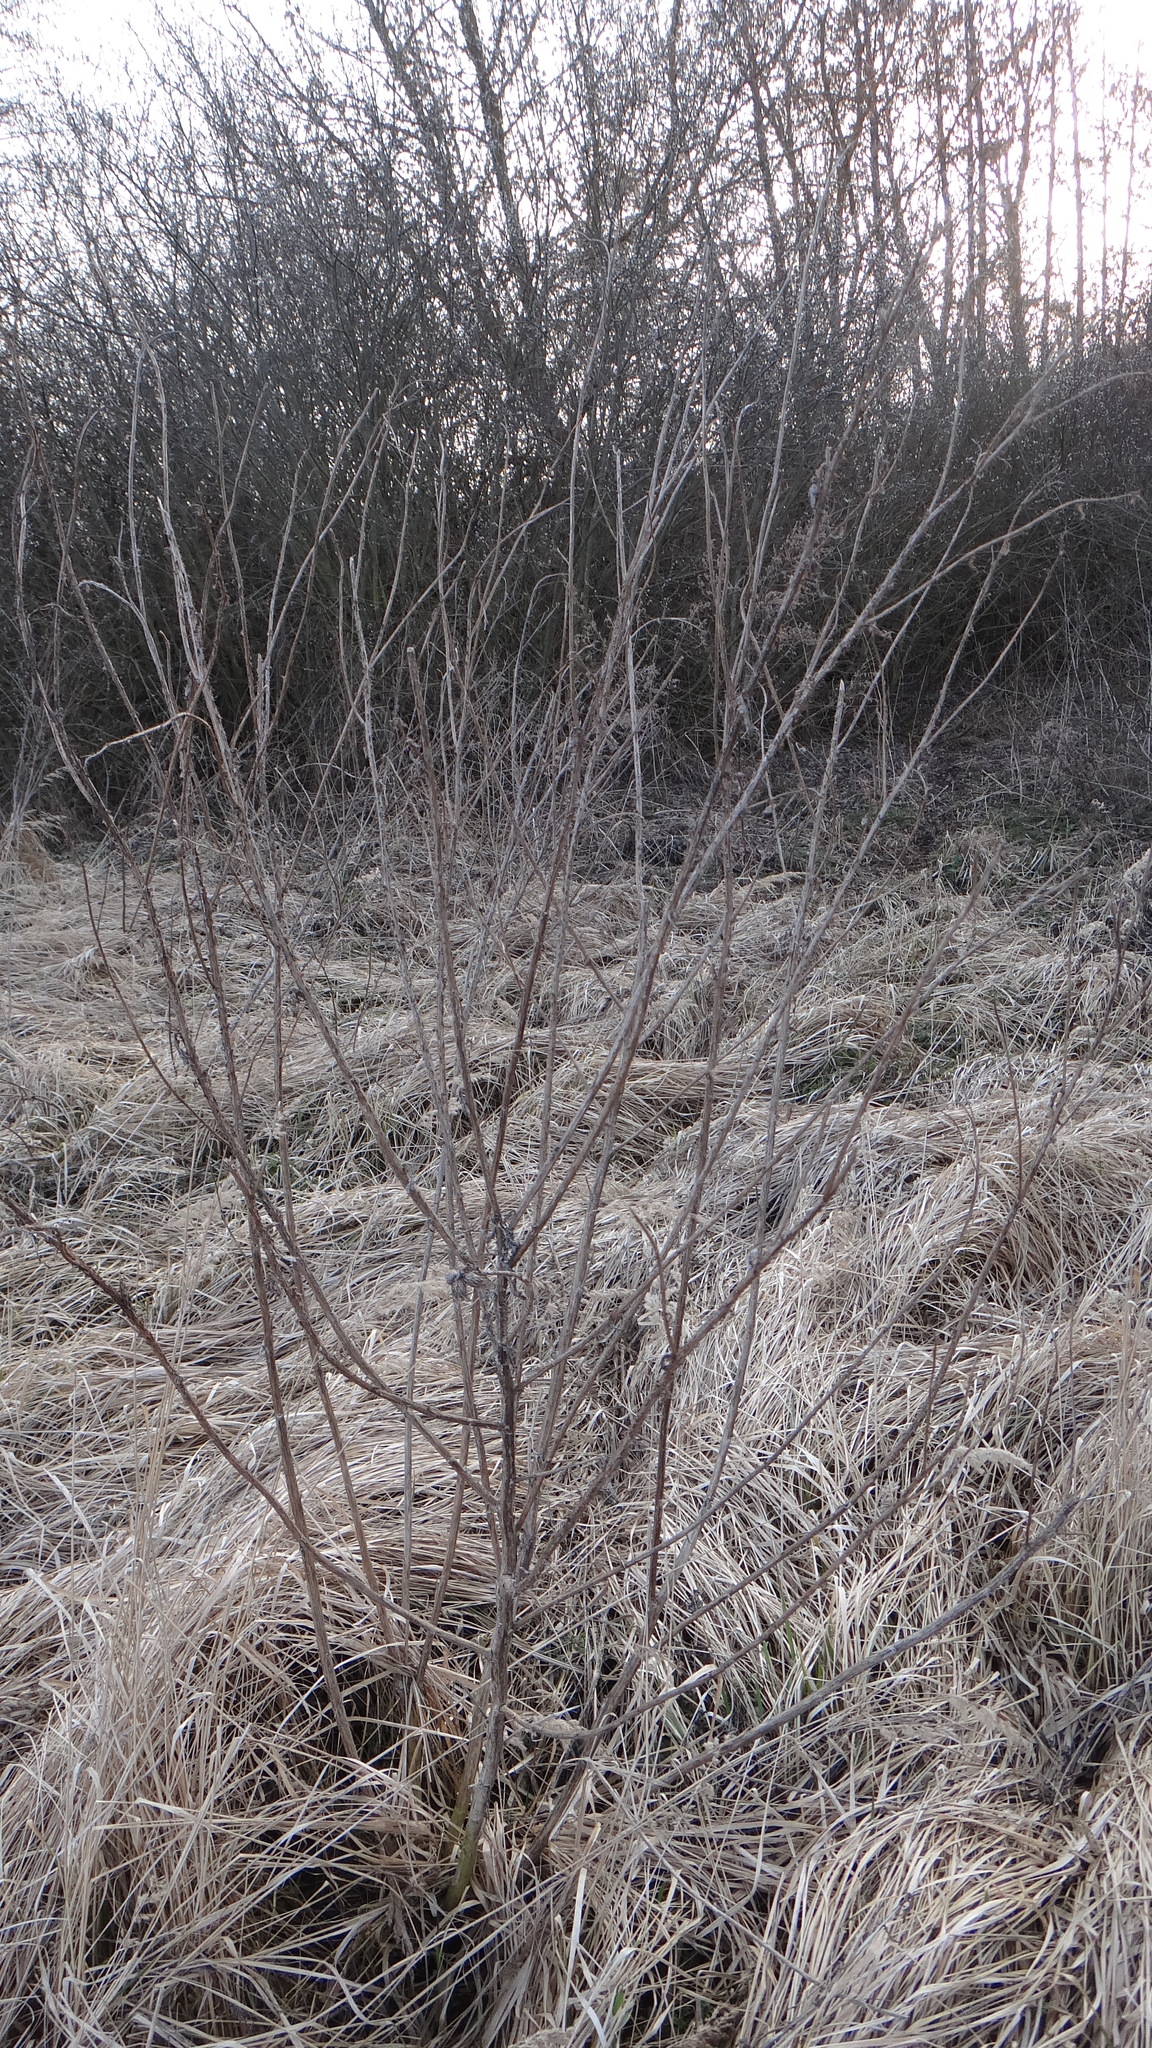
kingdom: Plantae
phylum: Tracheophyta
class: Magnoliopsida
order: Asterales
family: Asteraceae
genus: Carduus
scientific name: Carduus crispus
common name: Welted thistle
